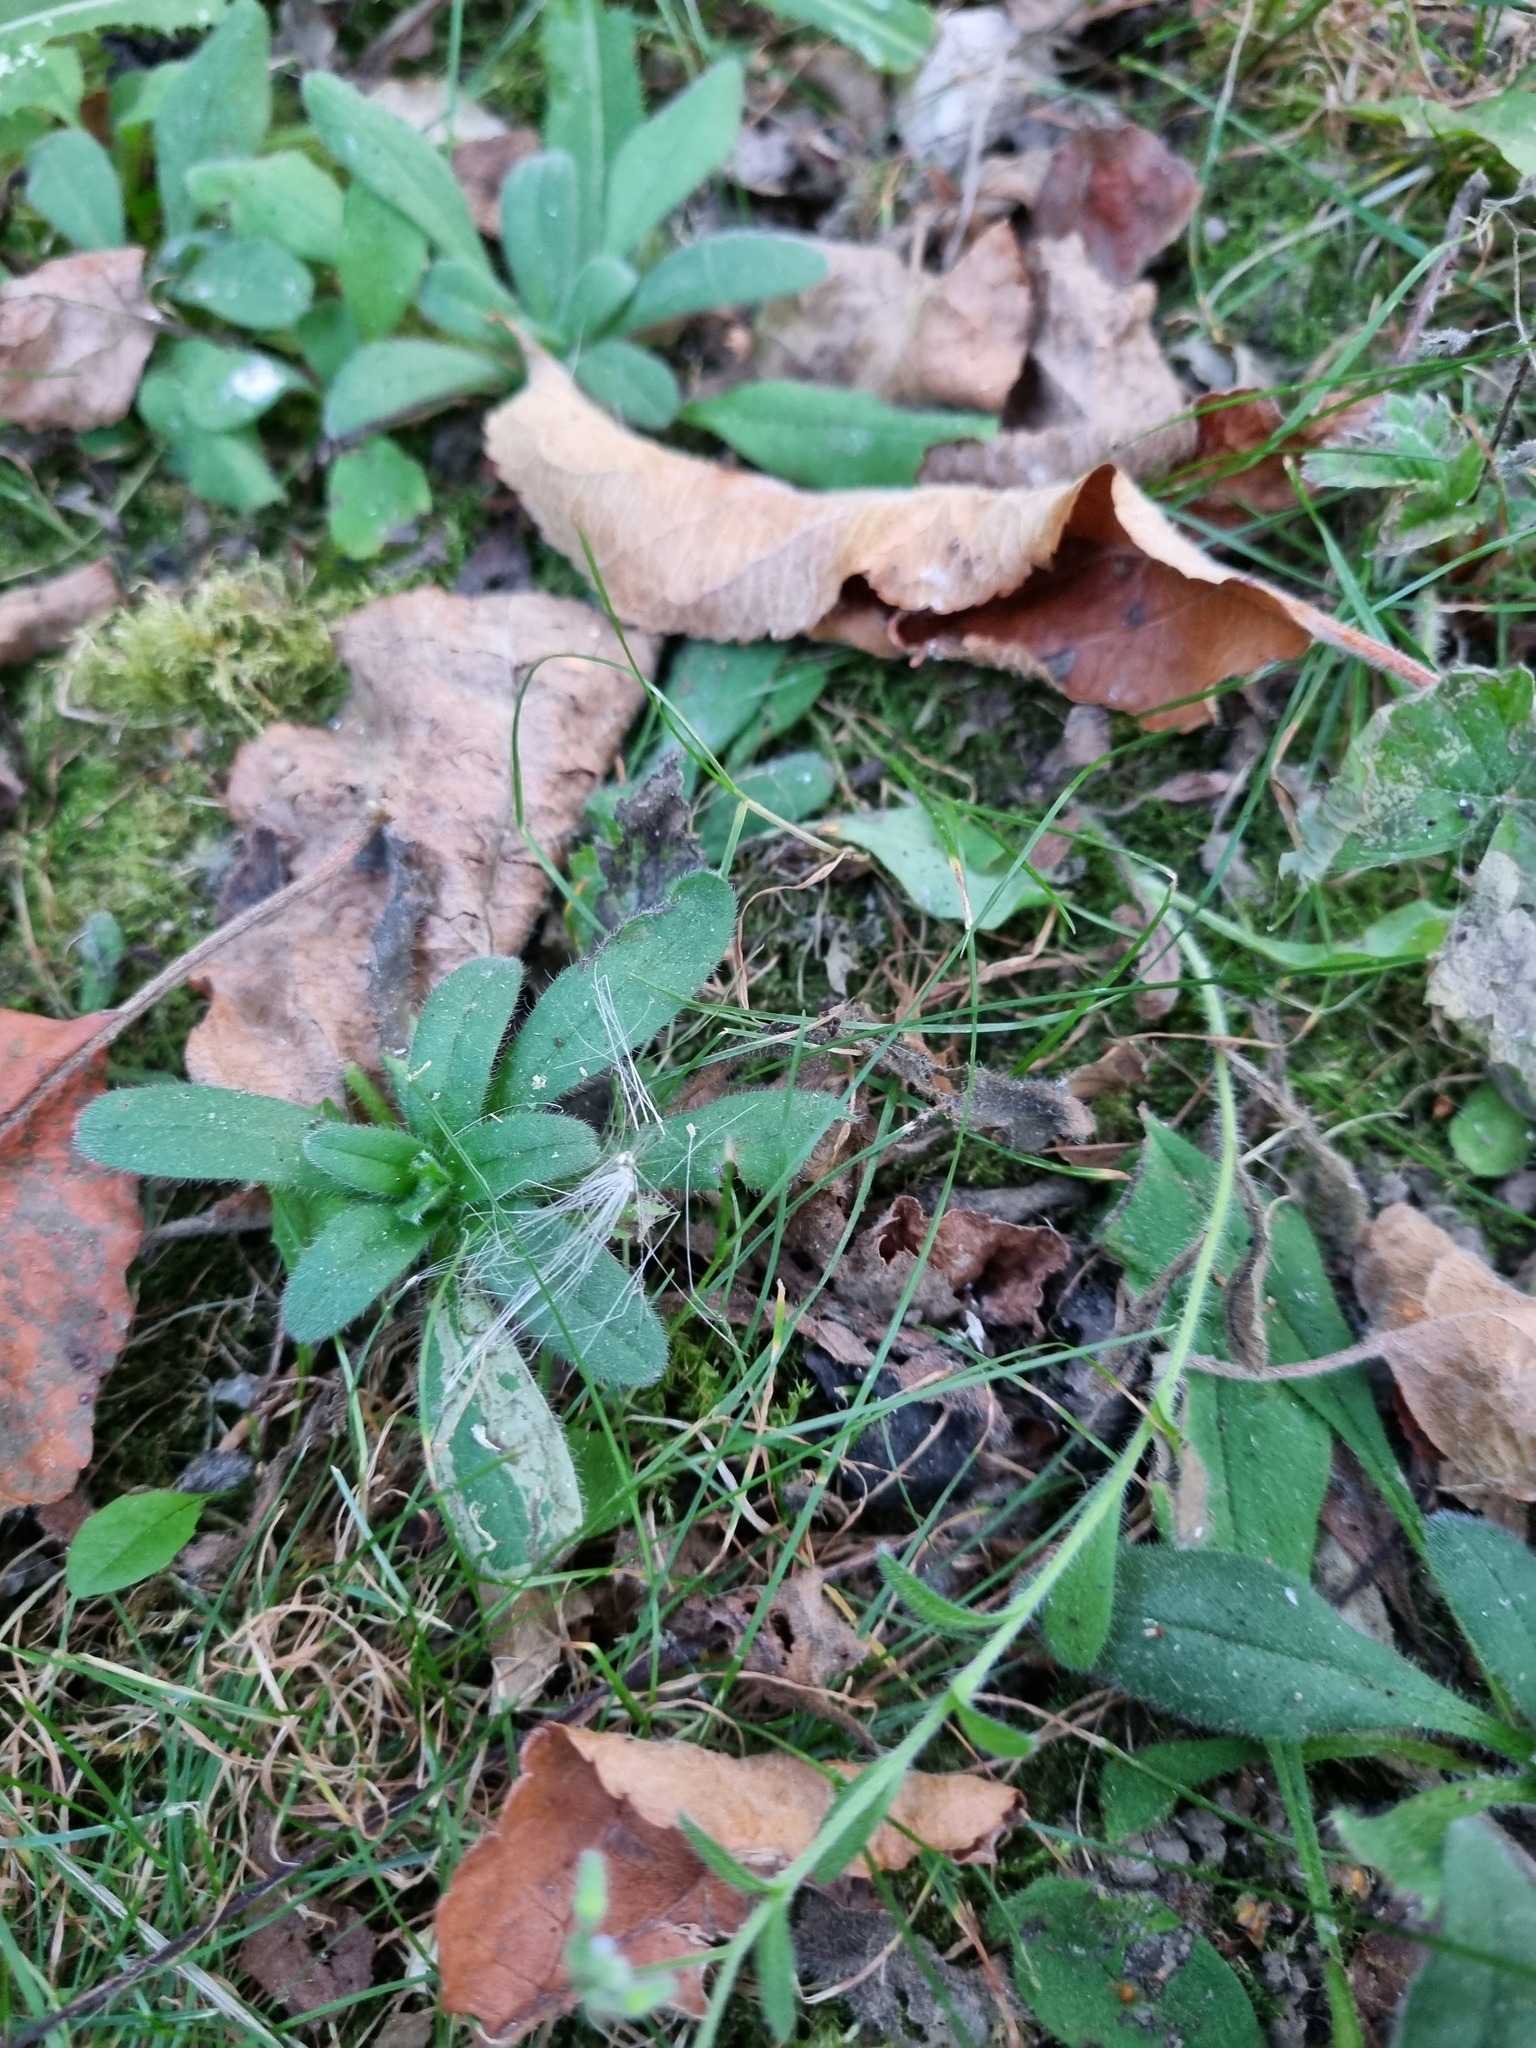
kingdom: Plantae
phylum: Tracheophyta
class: Magnoliopsida
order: Caryophyllales
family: Caryophyllaceae
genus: Cerastium
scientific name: Cerastium holosteoides
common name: Big chickweed
